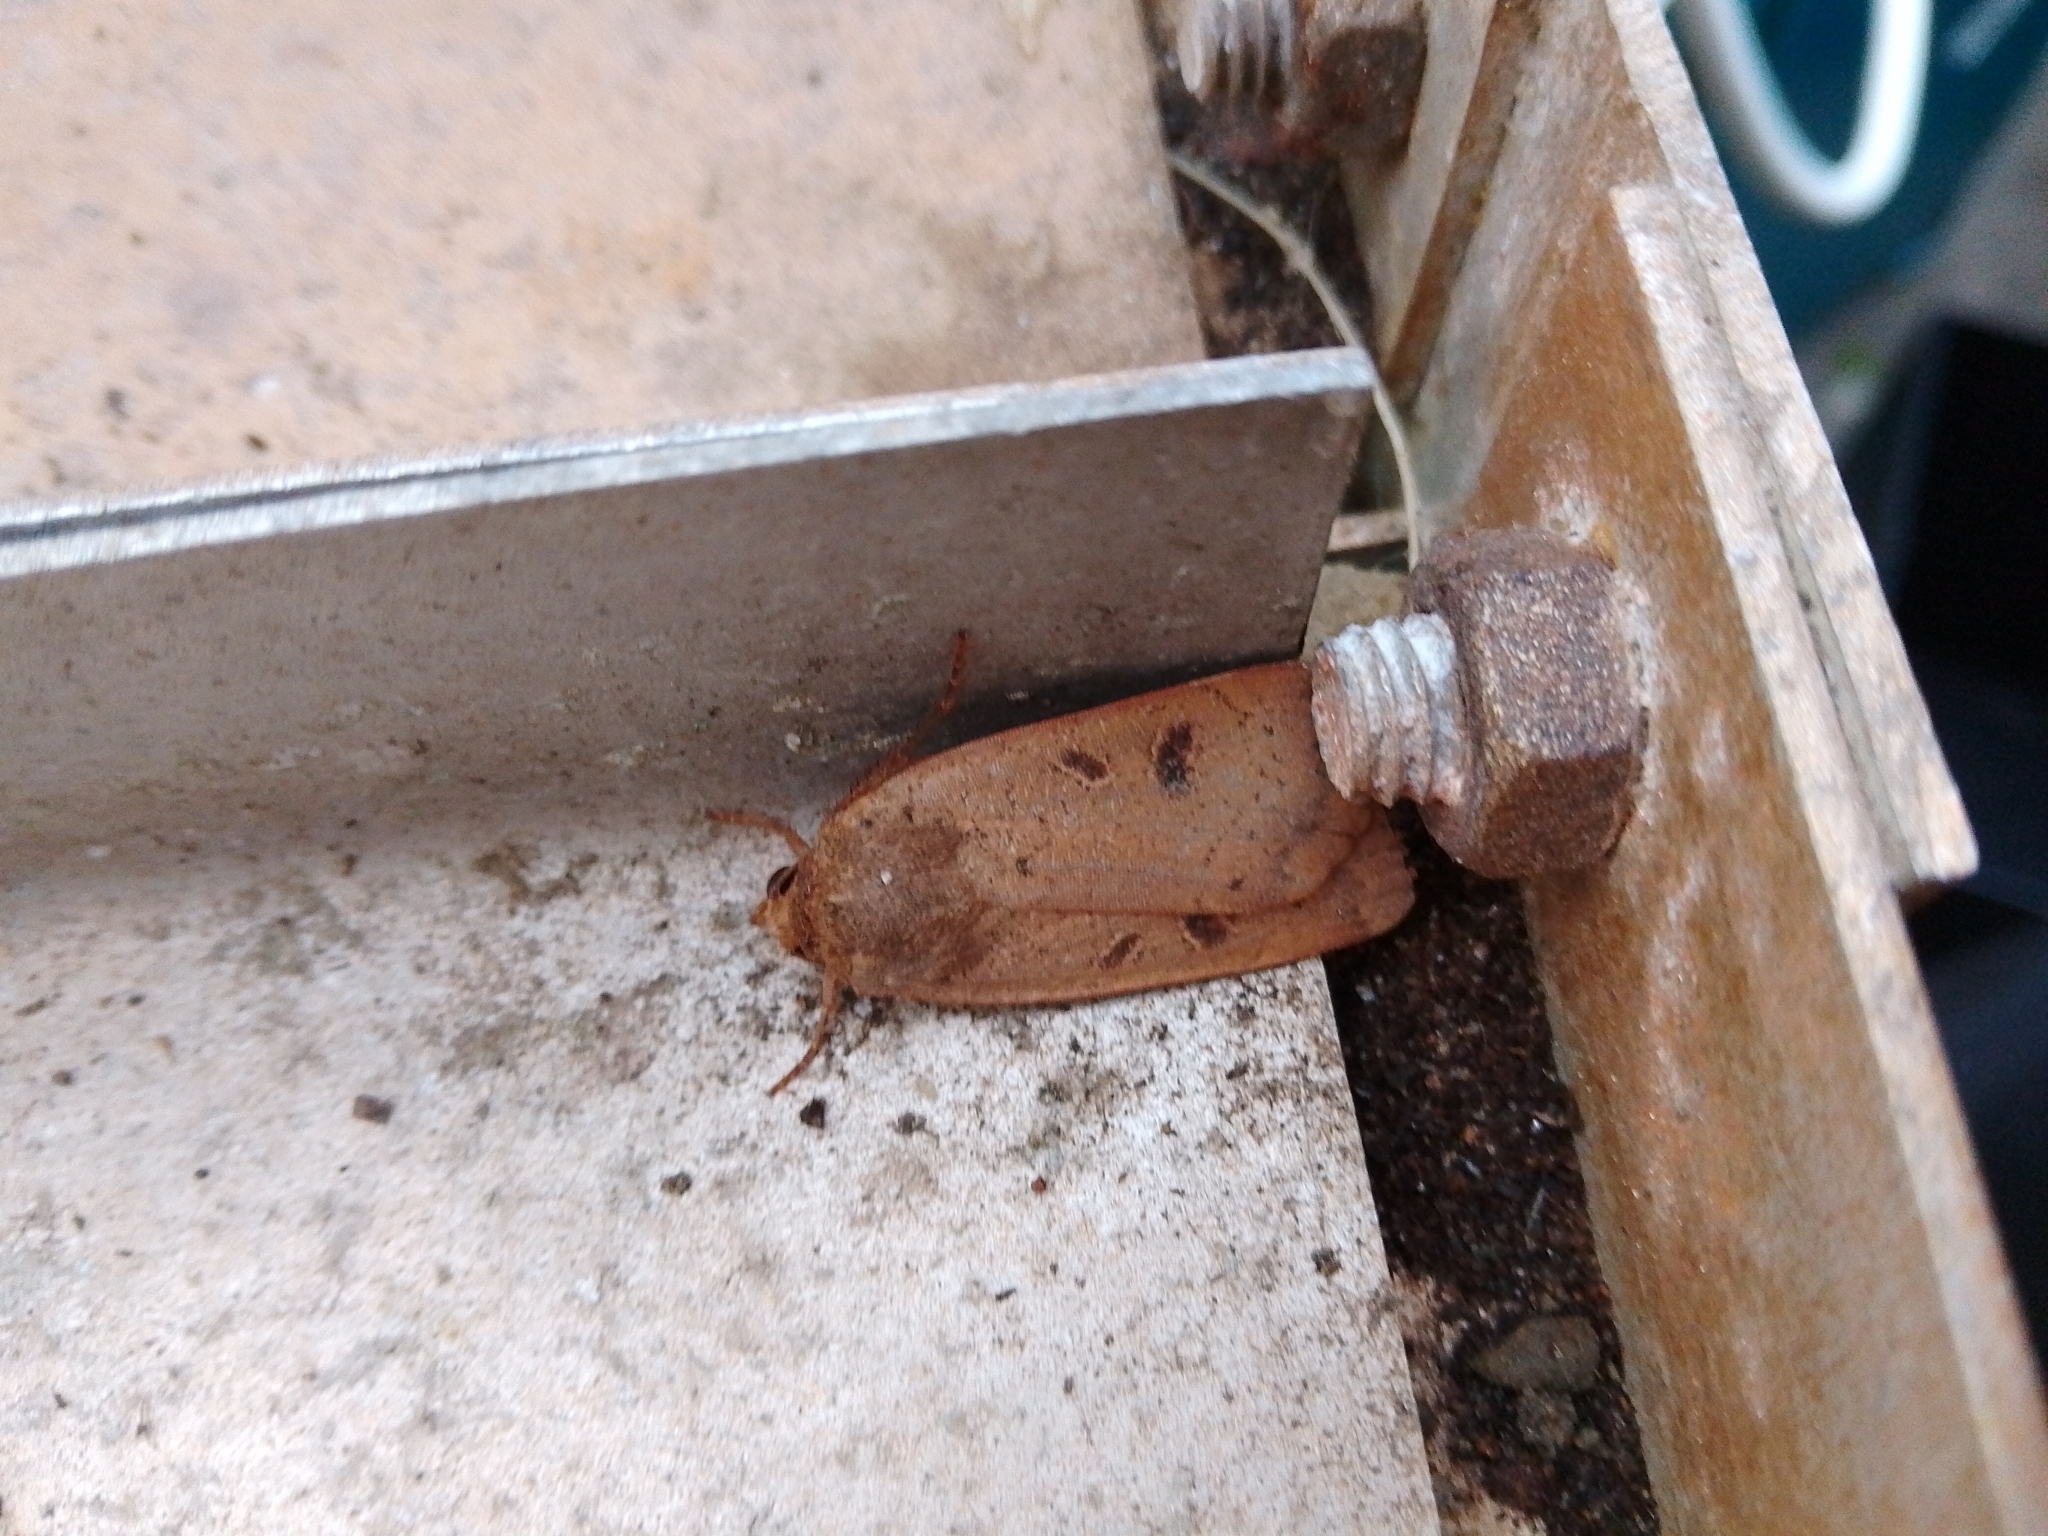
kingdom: Animalia
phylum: Arthropoda
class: Insecta
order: Lepidoptera
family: Noctuidae
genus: Noctua
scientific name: Noctua comes
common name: Lesser yellow underwing
